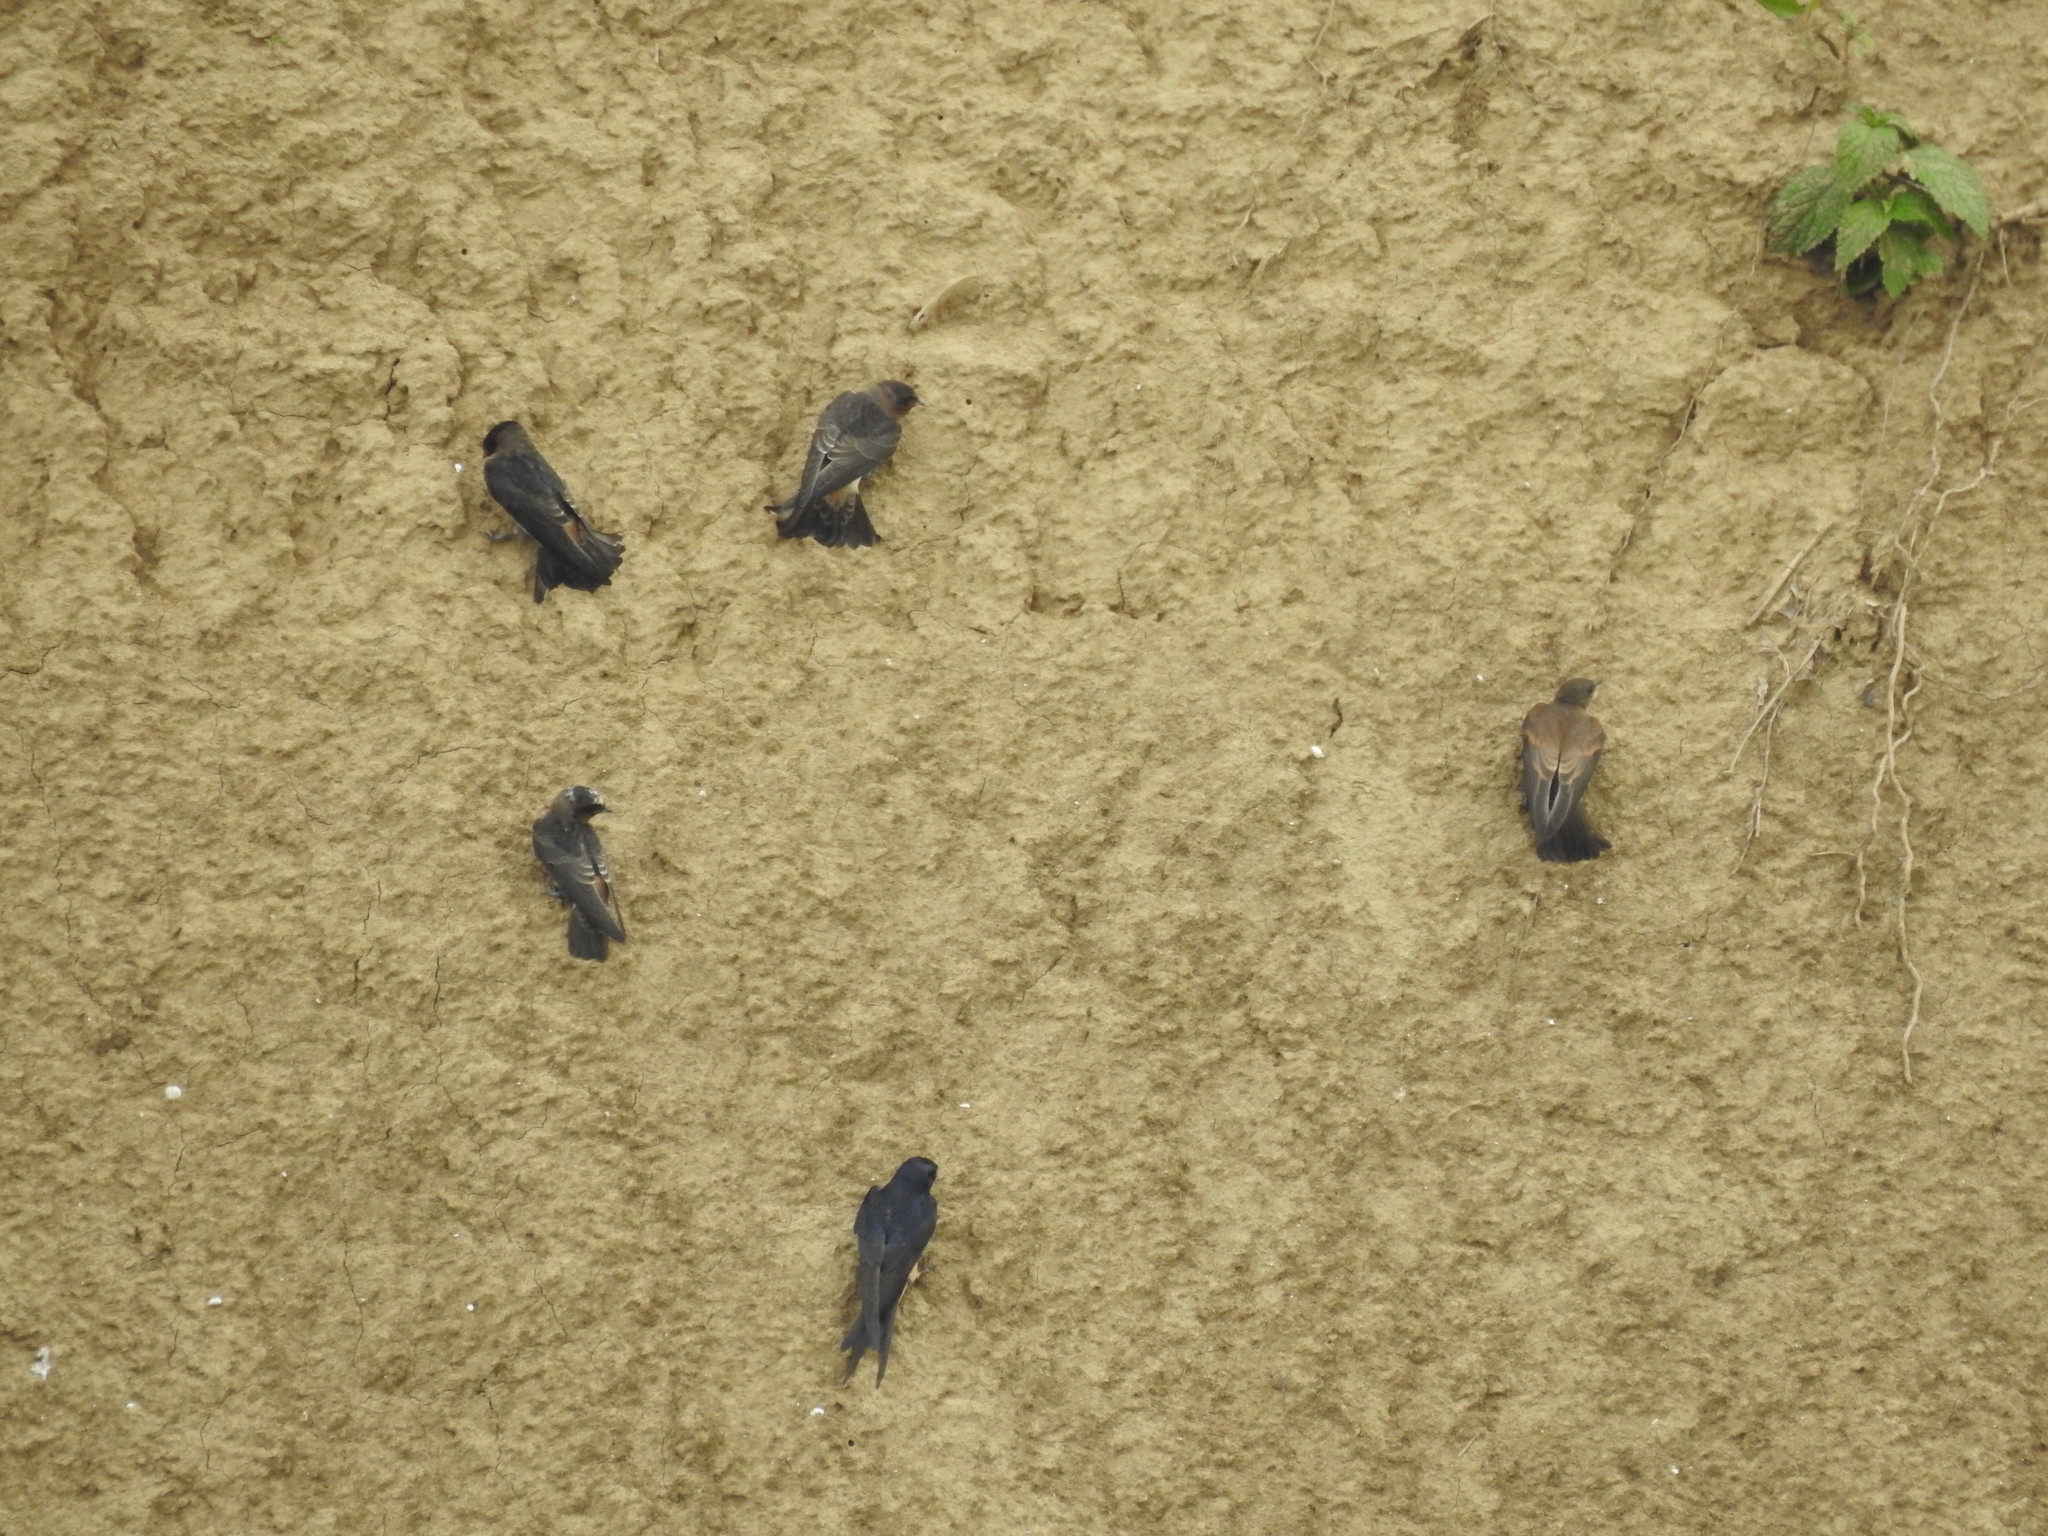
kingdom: Animalia
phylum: Chordata
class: Aves
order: Passeriformes
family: Hirundinidae
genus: Petrochelidon
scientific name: Petrochelidon pyrrhonota
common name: American cliff swallow
